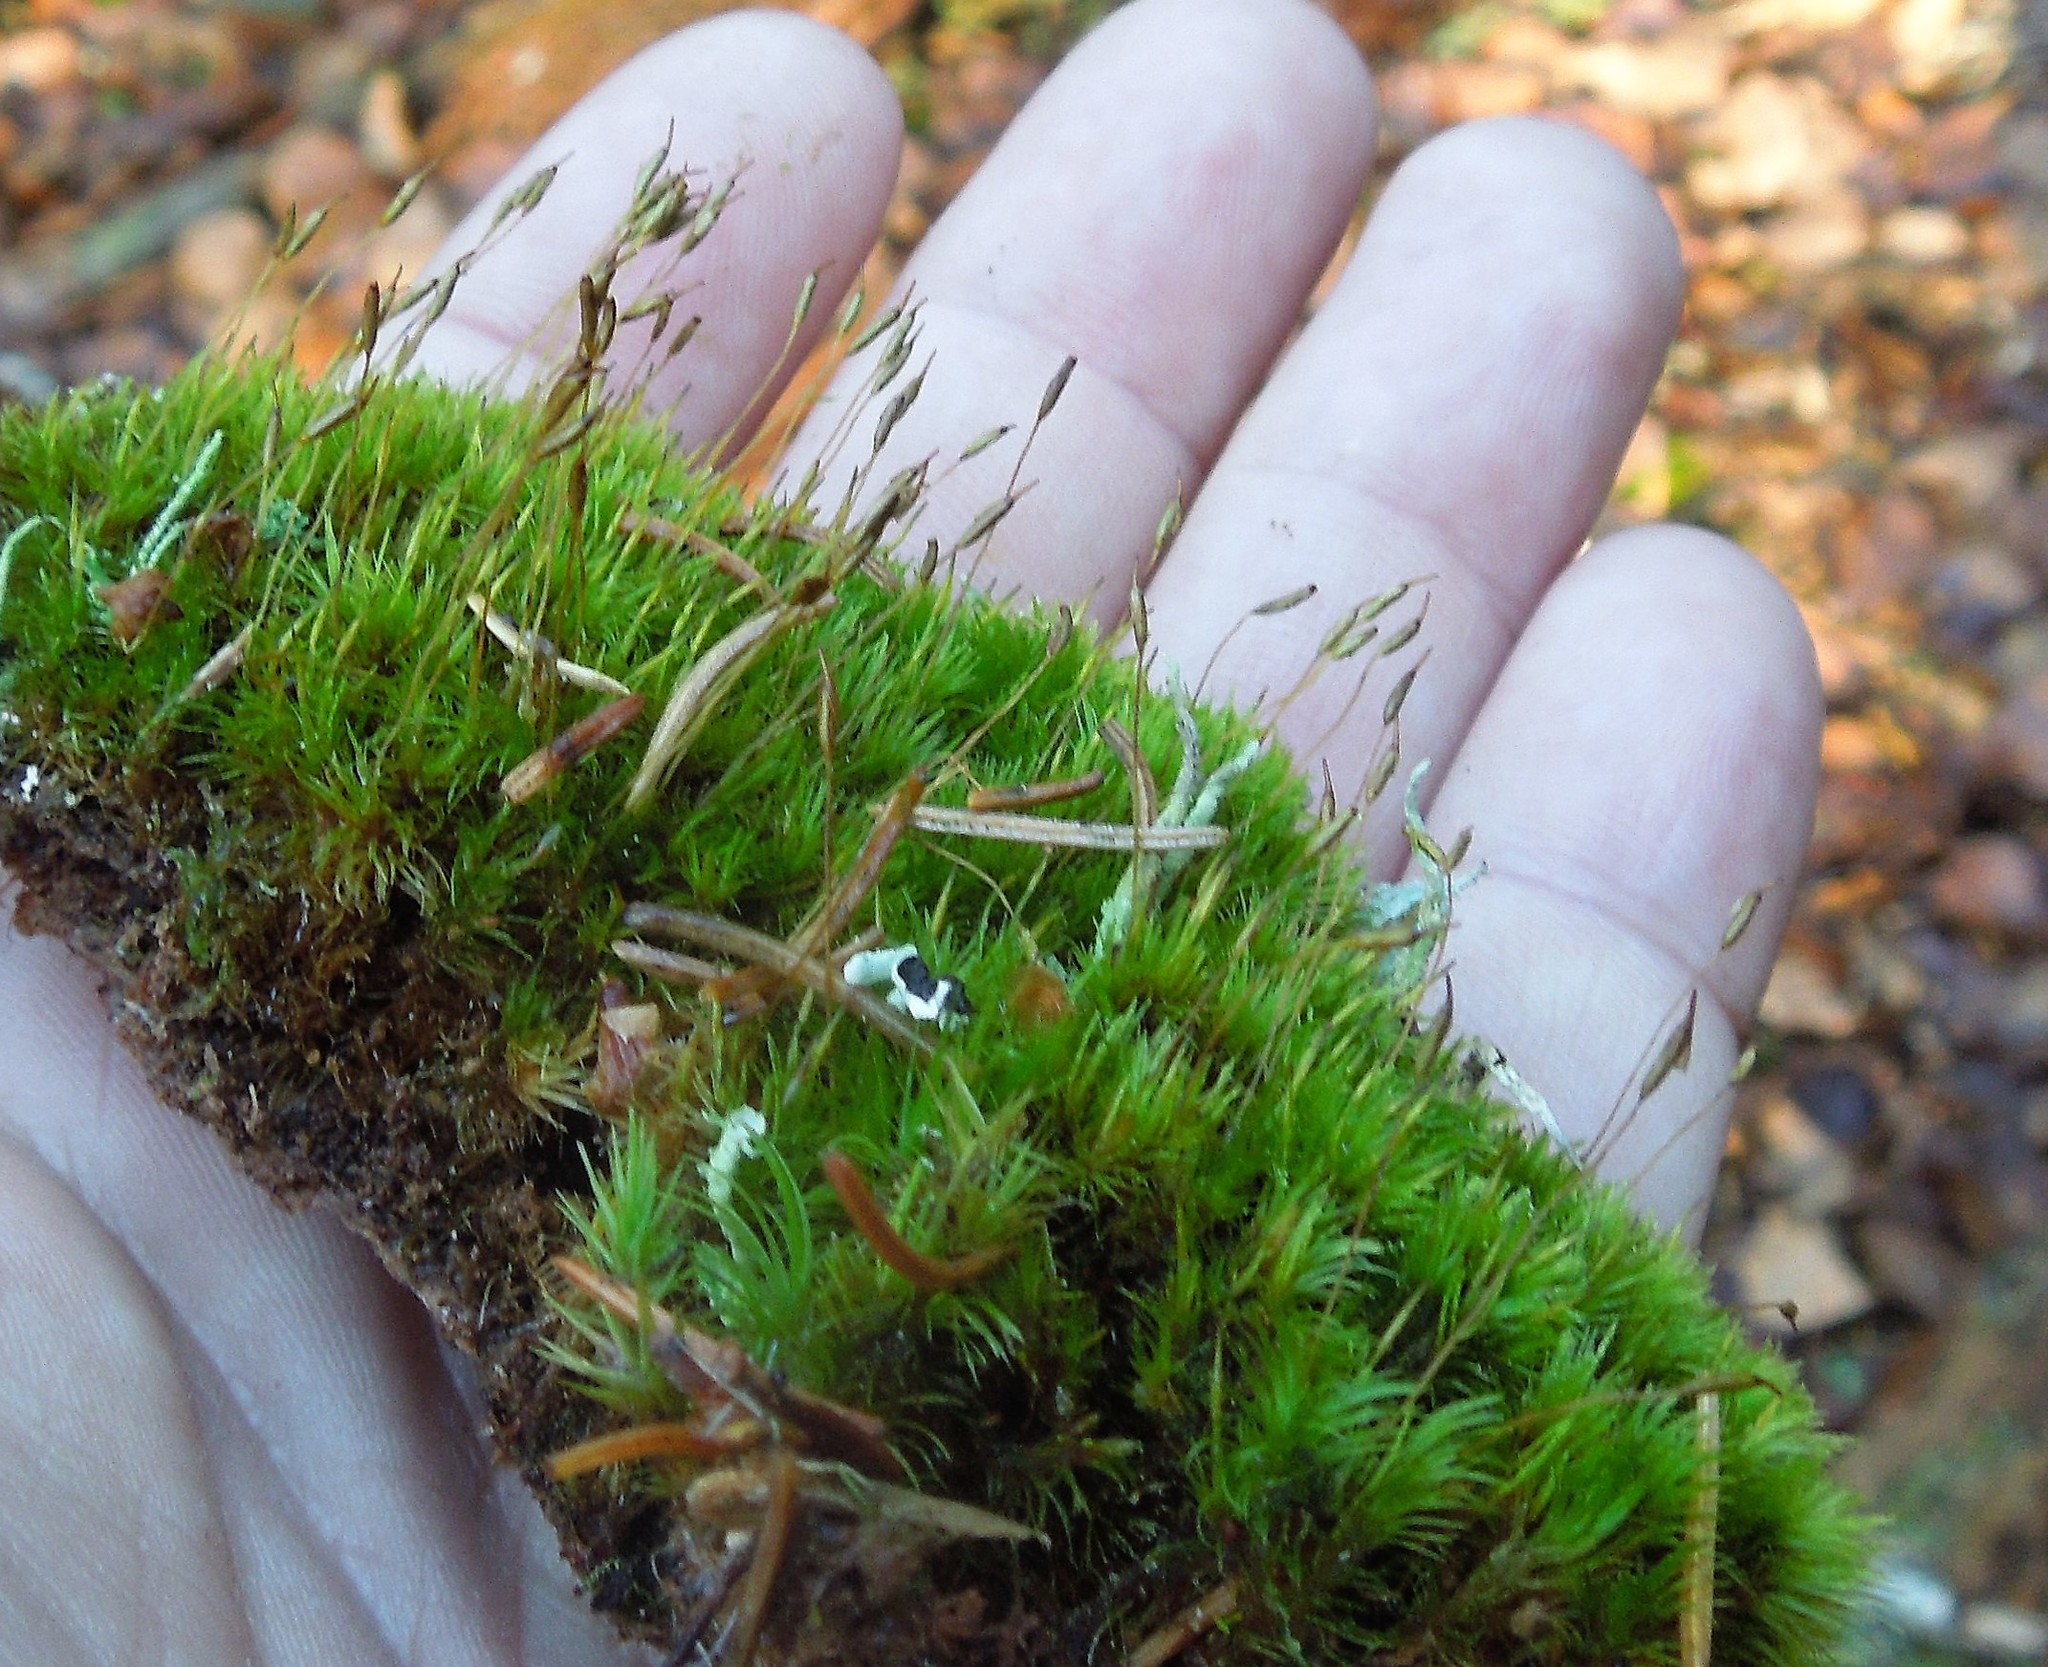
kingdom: Plantae
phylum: Bryophyta
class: Bryopsida
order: Dicranales
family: Dicranaceae
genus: Dicranum
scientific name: Dicranum
